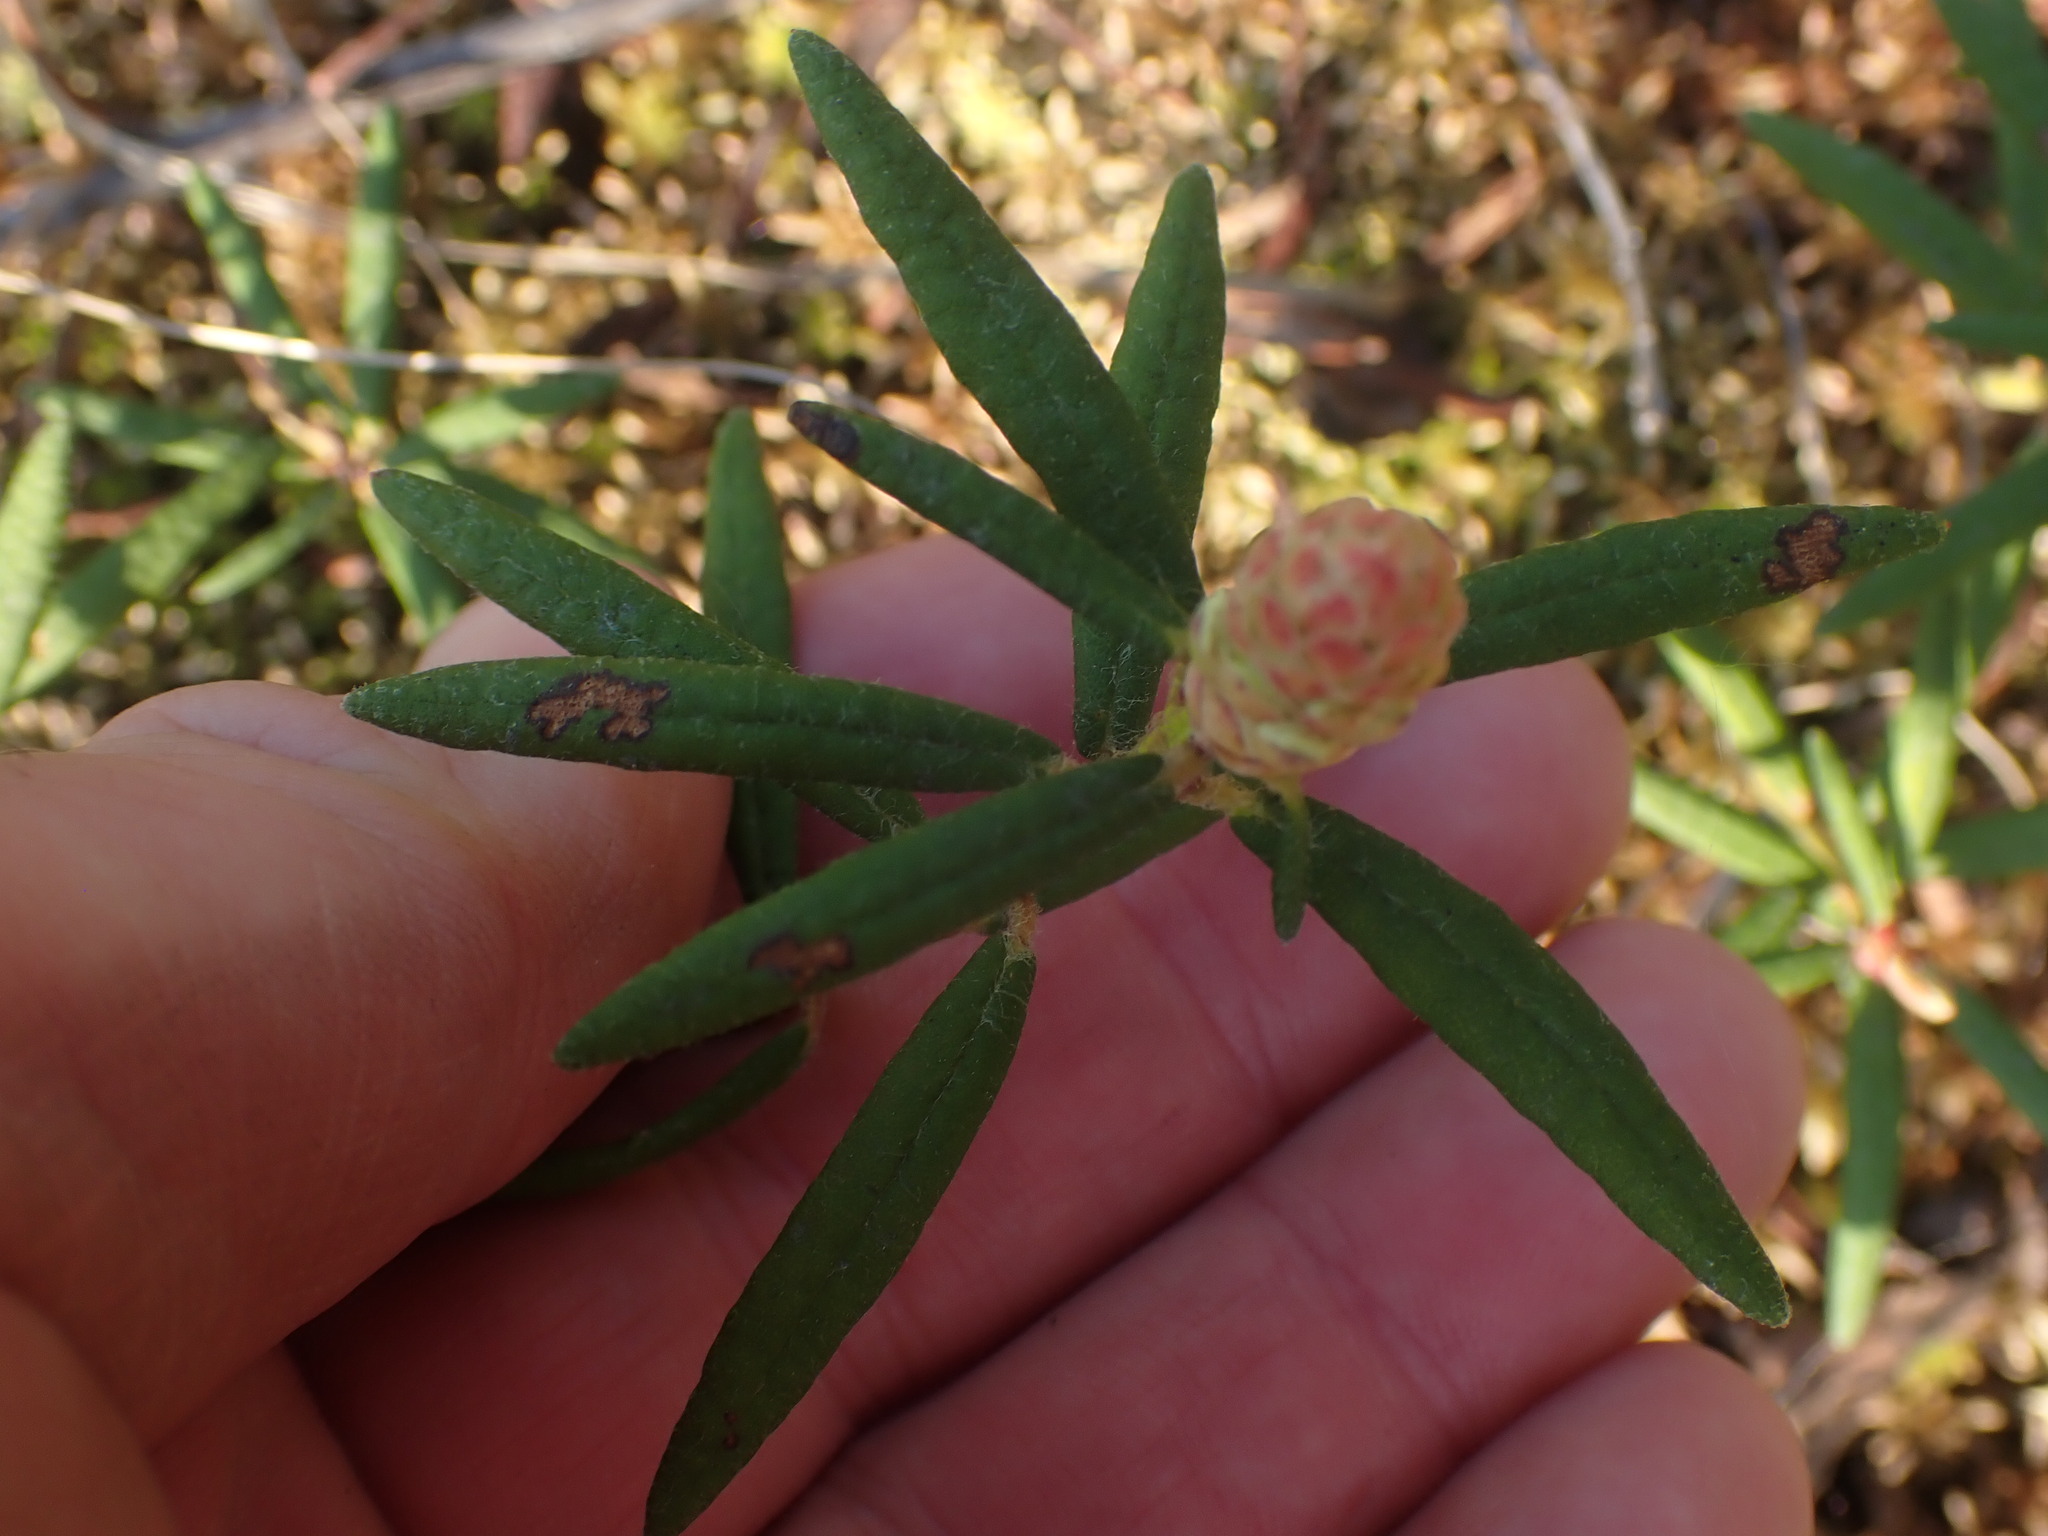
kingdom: Plantae
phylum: Tracheophyta
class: Magnoliopsida
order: Ericales
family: Ericaceae
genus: Rhododendron
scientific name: Rhododendron groenlandicum
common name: Bog labrador tea
